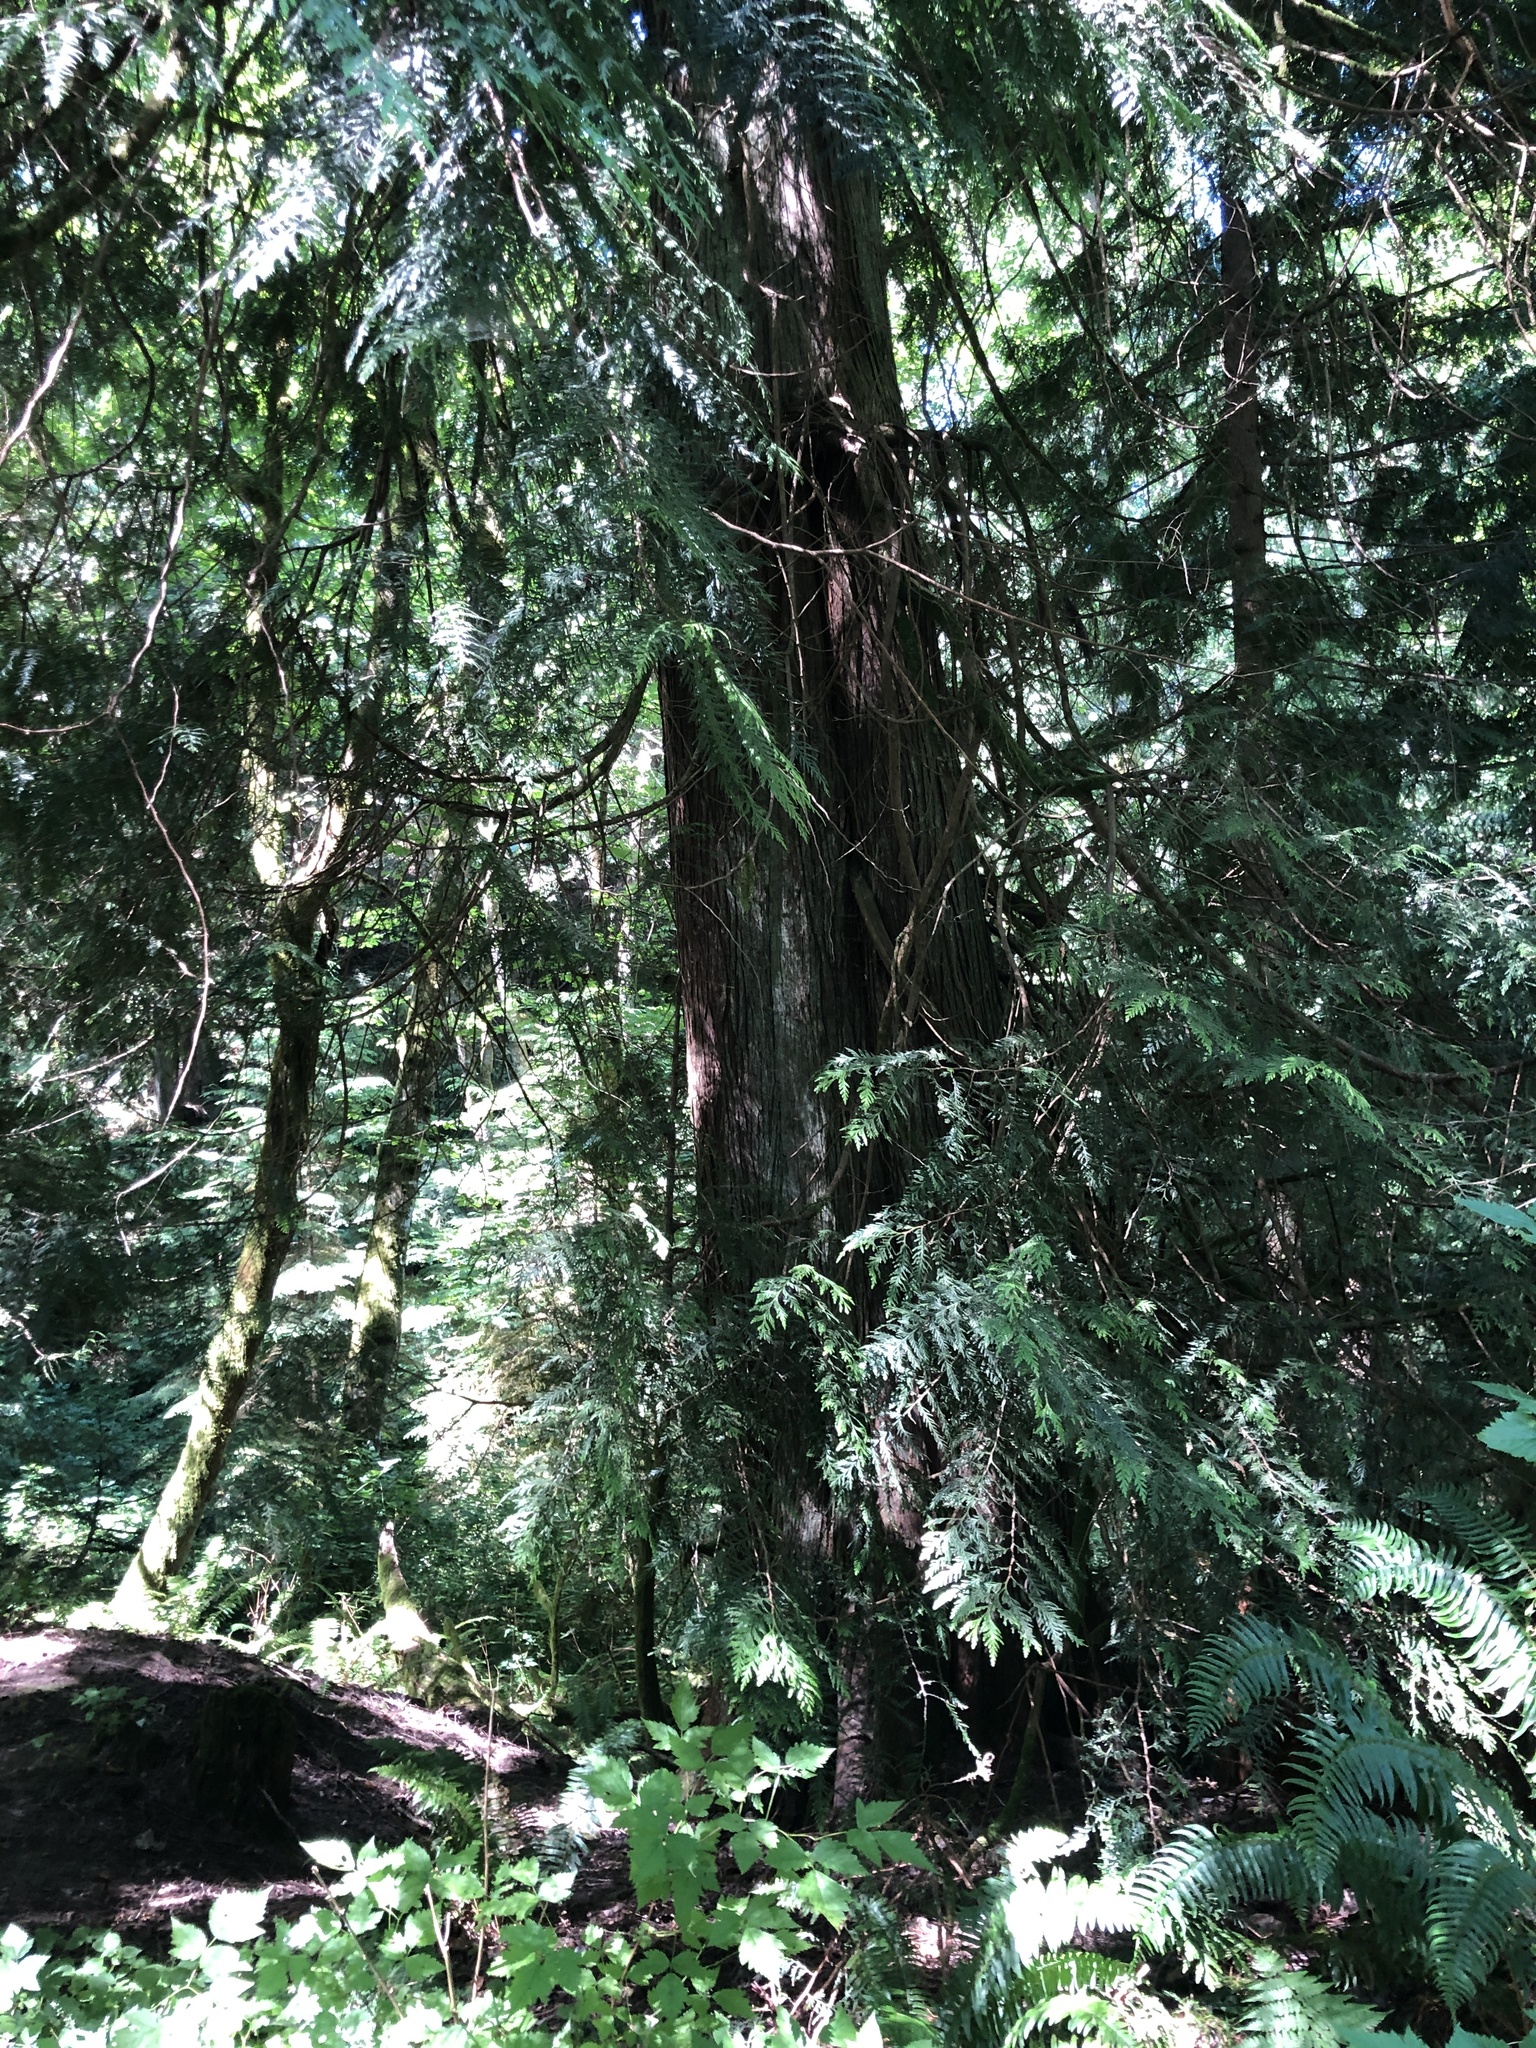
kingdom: Plantae
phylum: Tracheophyta
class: Pinopsida
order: Pinales
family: Cupressaceae
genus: Thuja
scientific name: Thuja plicata
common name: Western red-cedar
